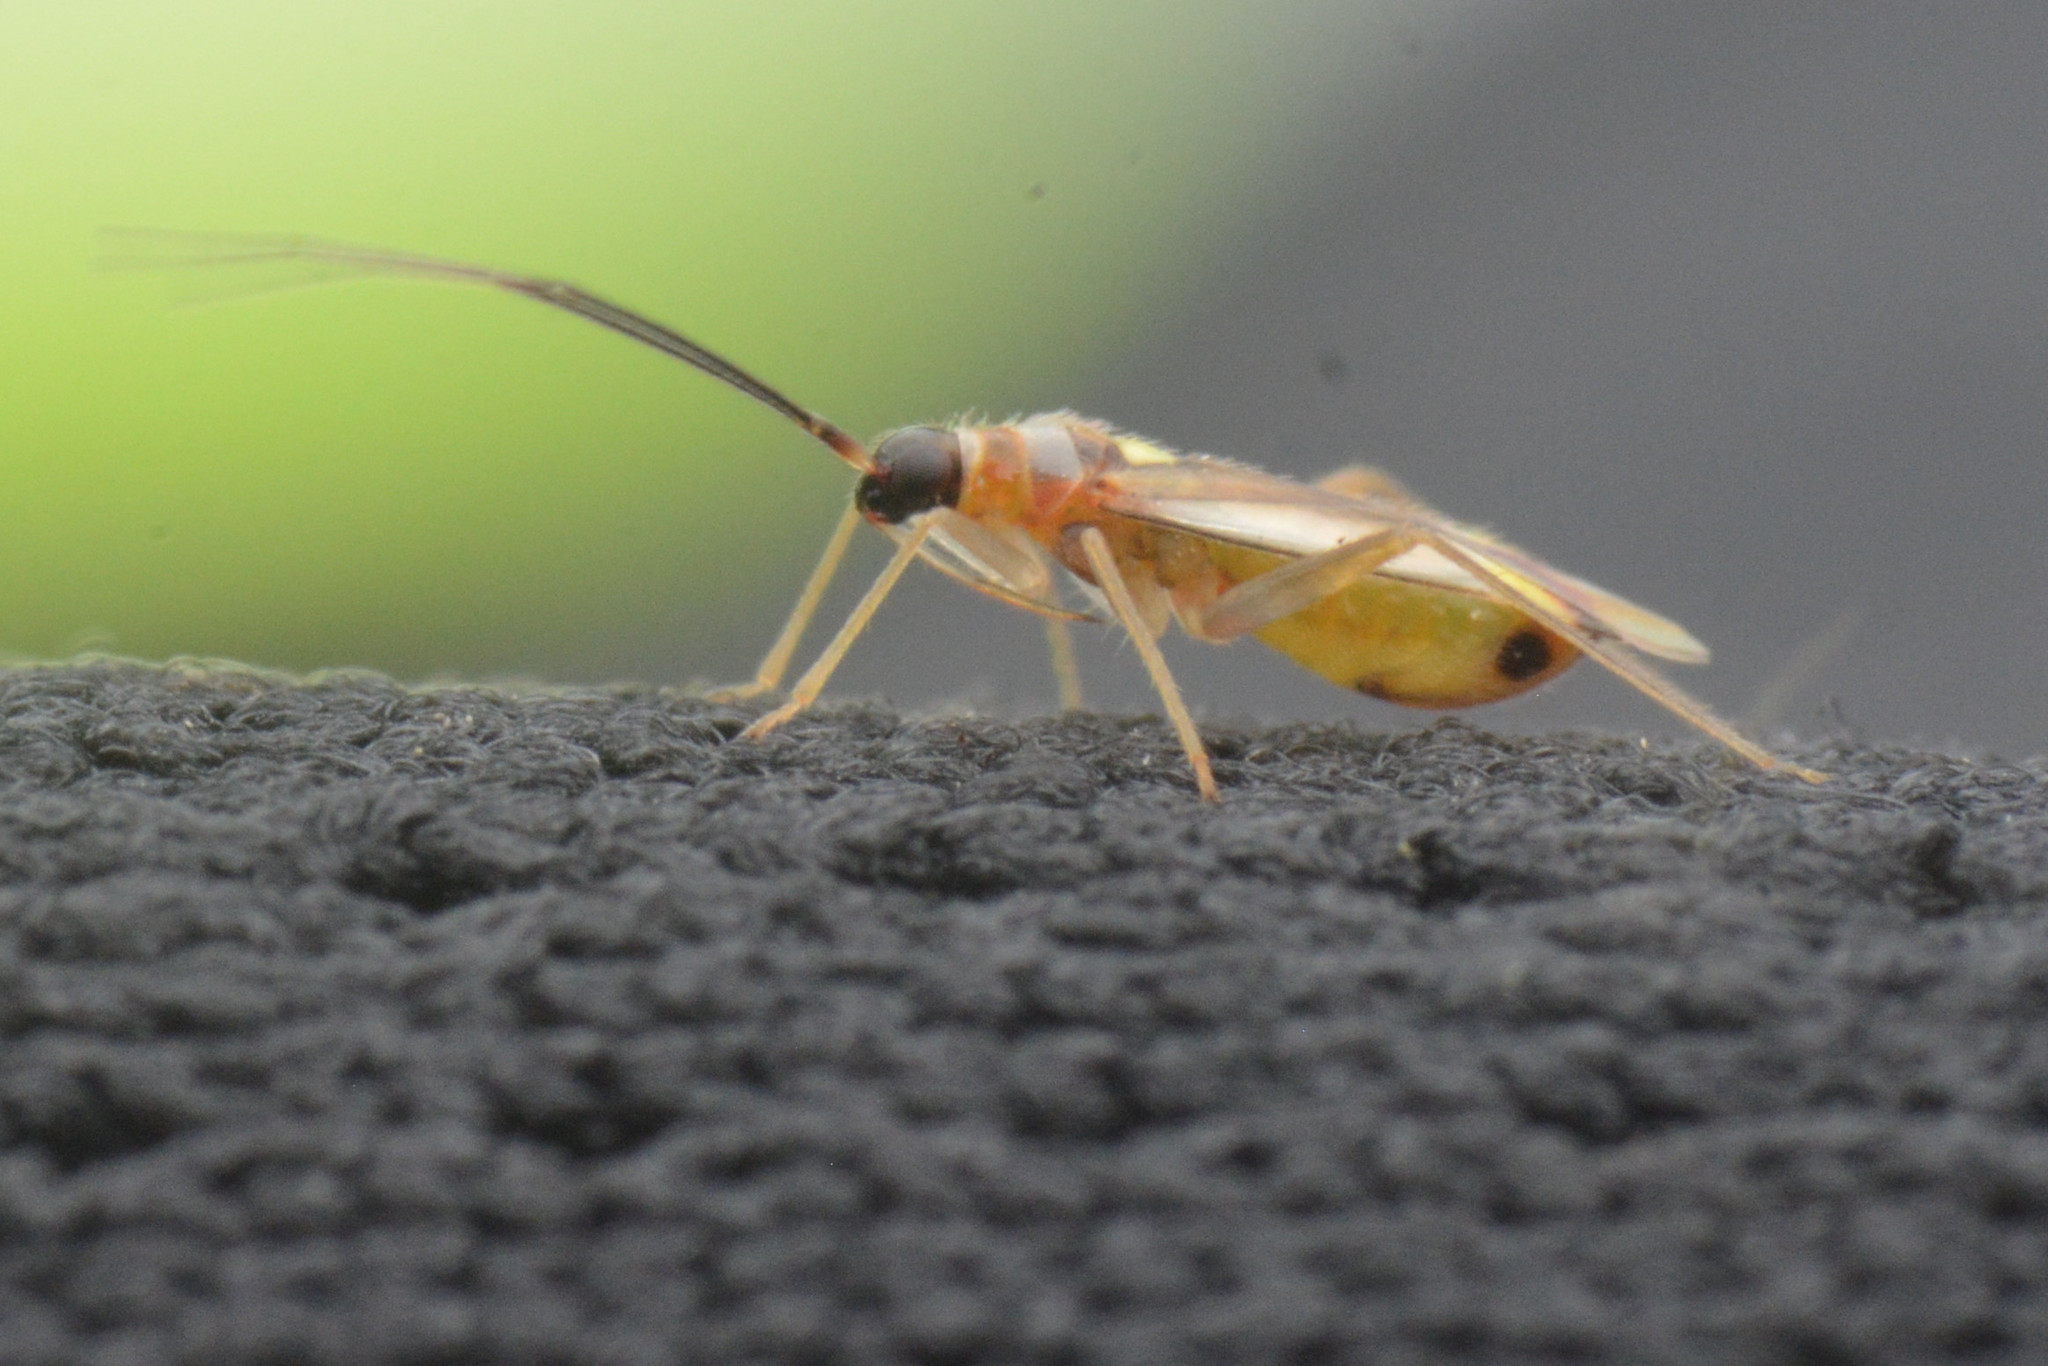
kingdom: Animalia
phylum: Arthropoda
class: Insecta
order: Hemiptera
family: Miridae
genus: Campyloneura
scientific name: Campyloneura virgula
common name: Predatory bug
